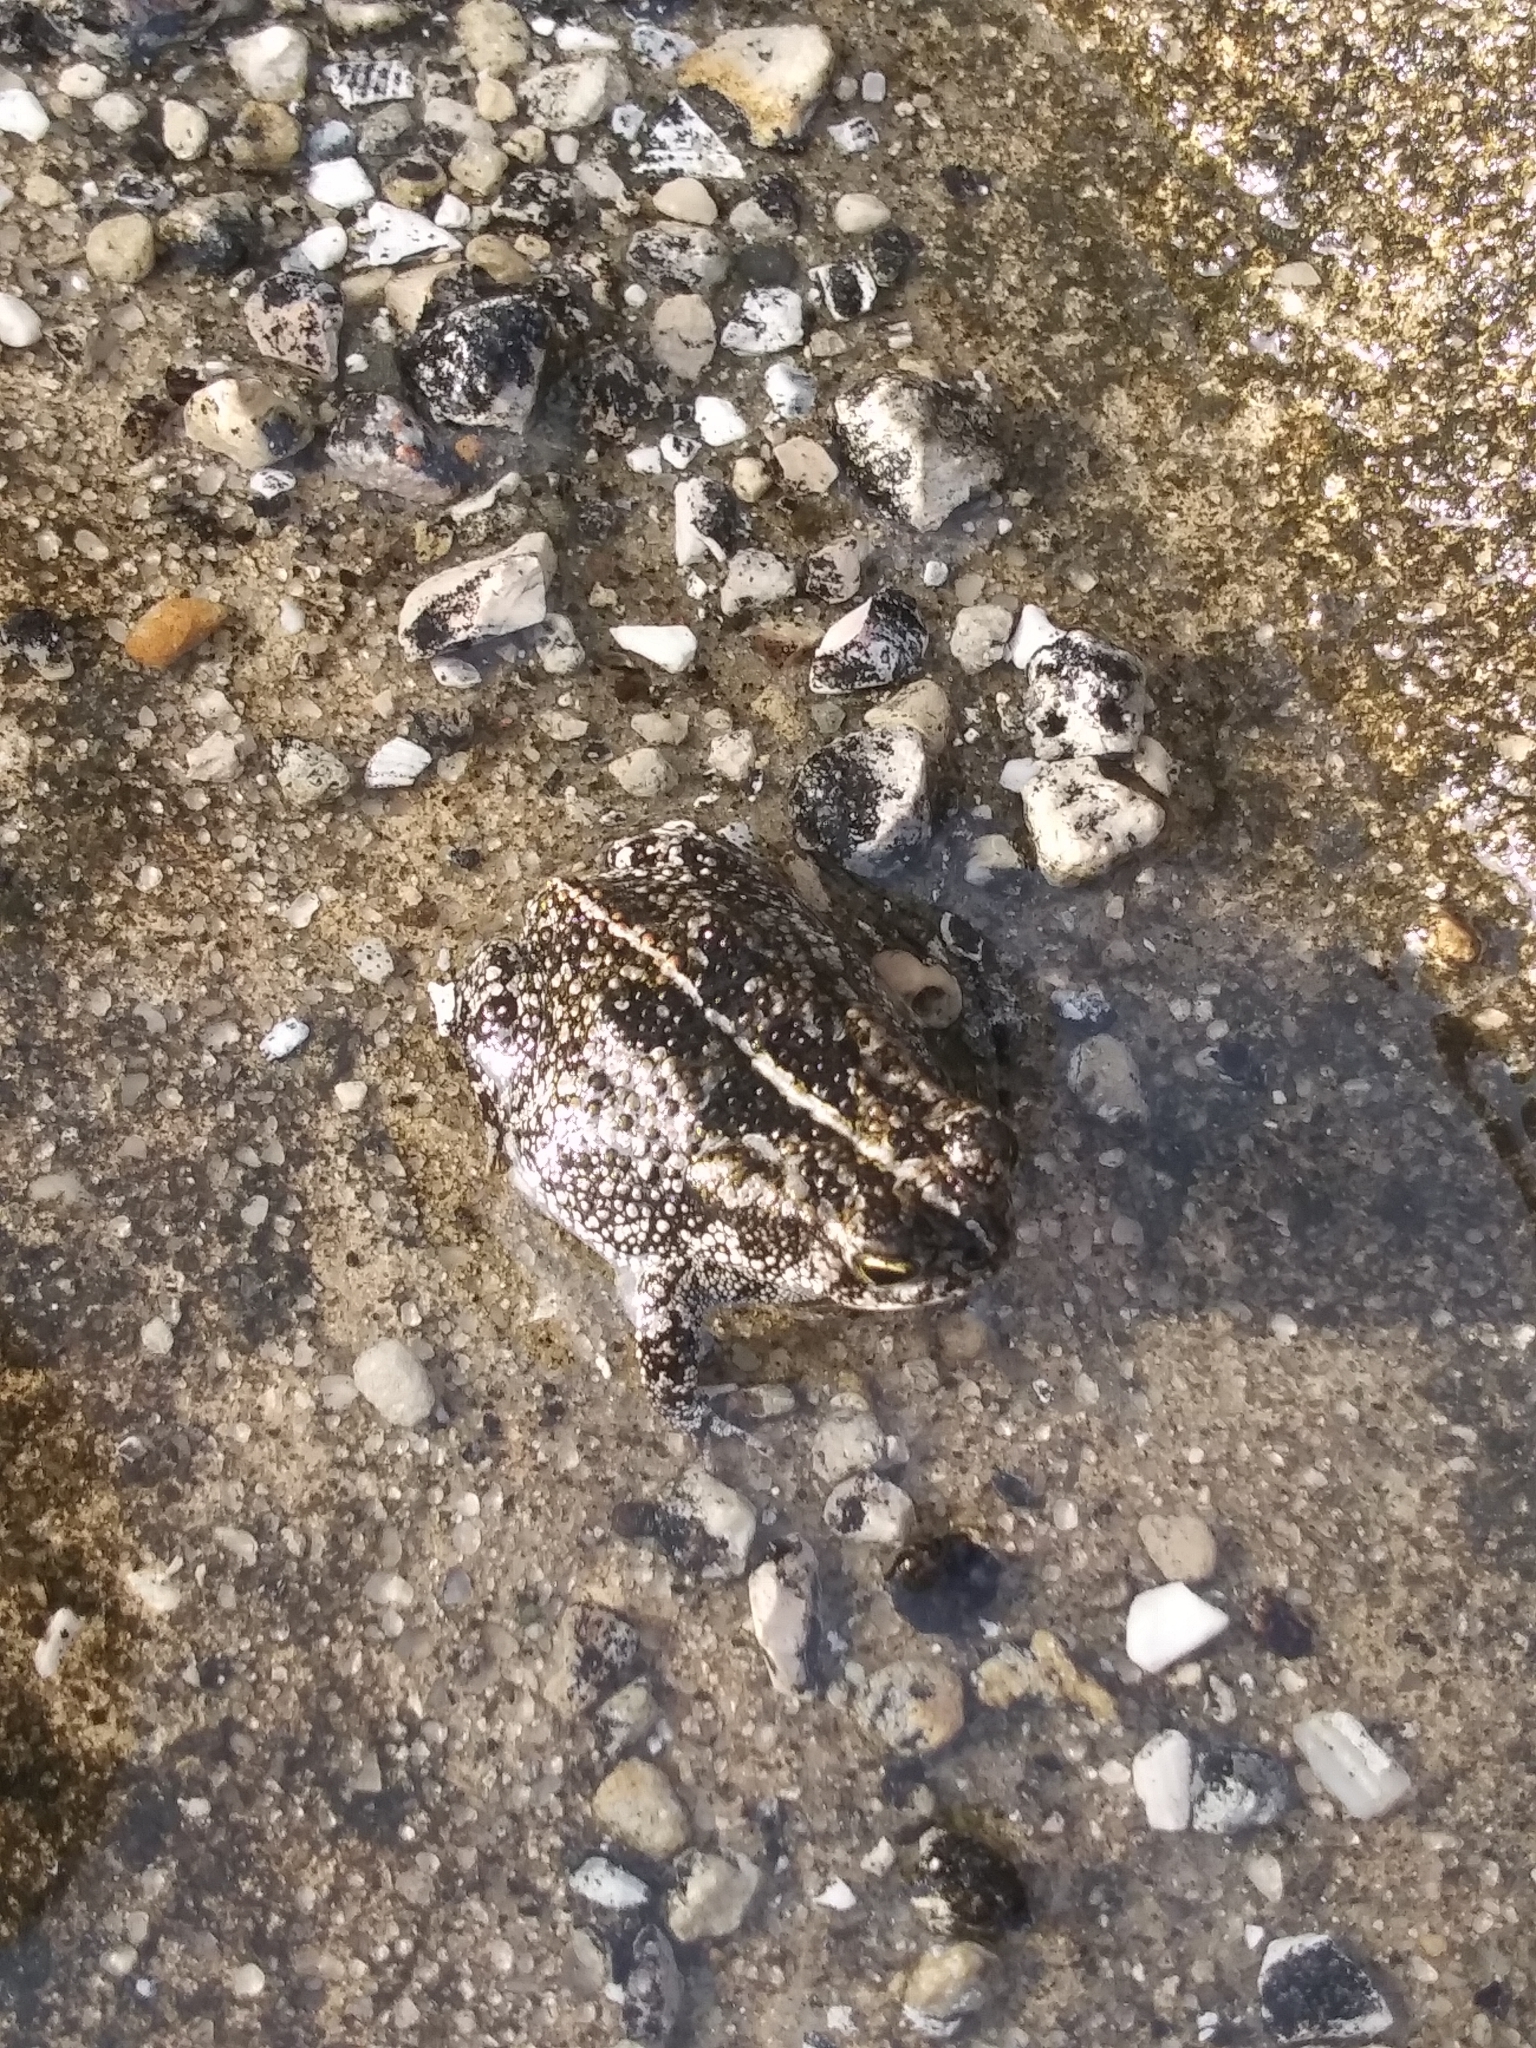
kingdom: Animalia
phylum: Chordata
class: Amphibia
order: Anura
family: Bufonidae
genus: Anaxyrus
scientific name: Anaxyrus quercicus
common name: Oak toad
